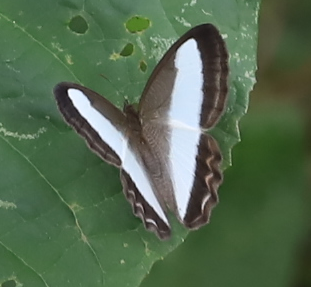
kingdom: Animalia
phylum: Arthropoda
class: Insecta
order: Lepidoptera
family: Nymphalidae
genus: Oressinoma
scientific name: Oressinoma typhla
